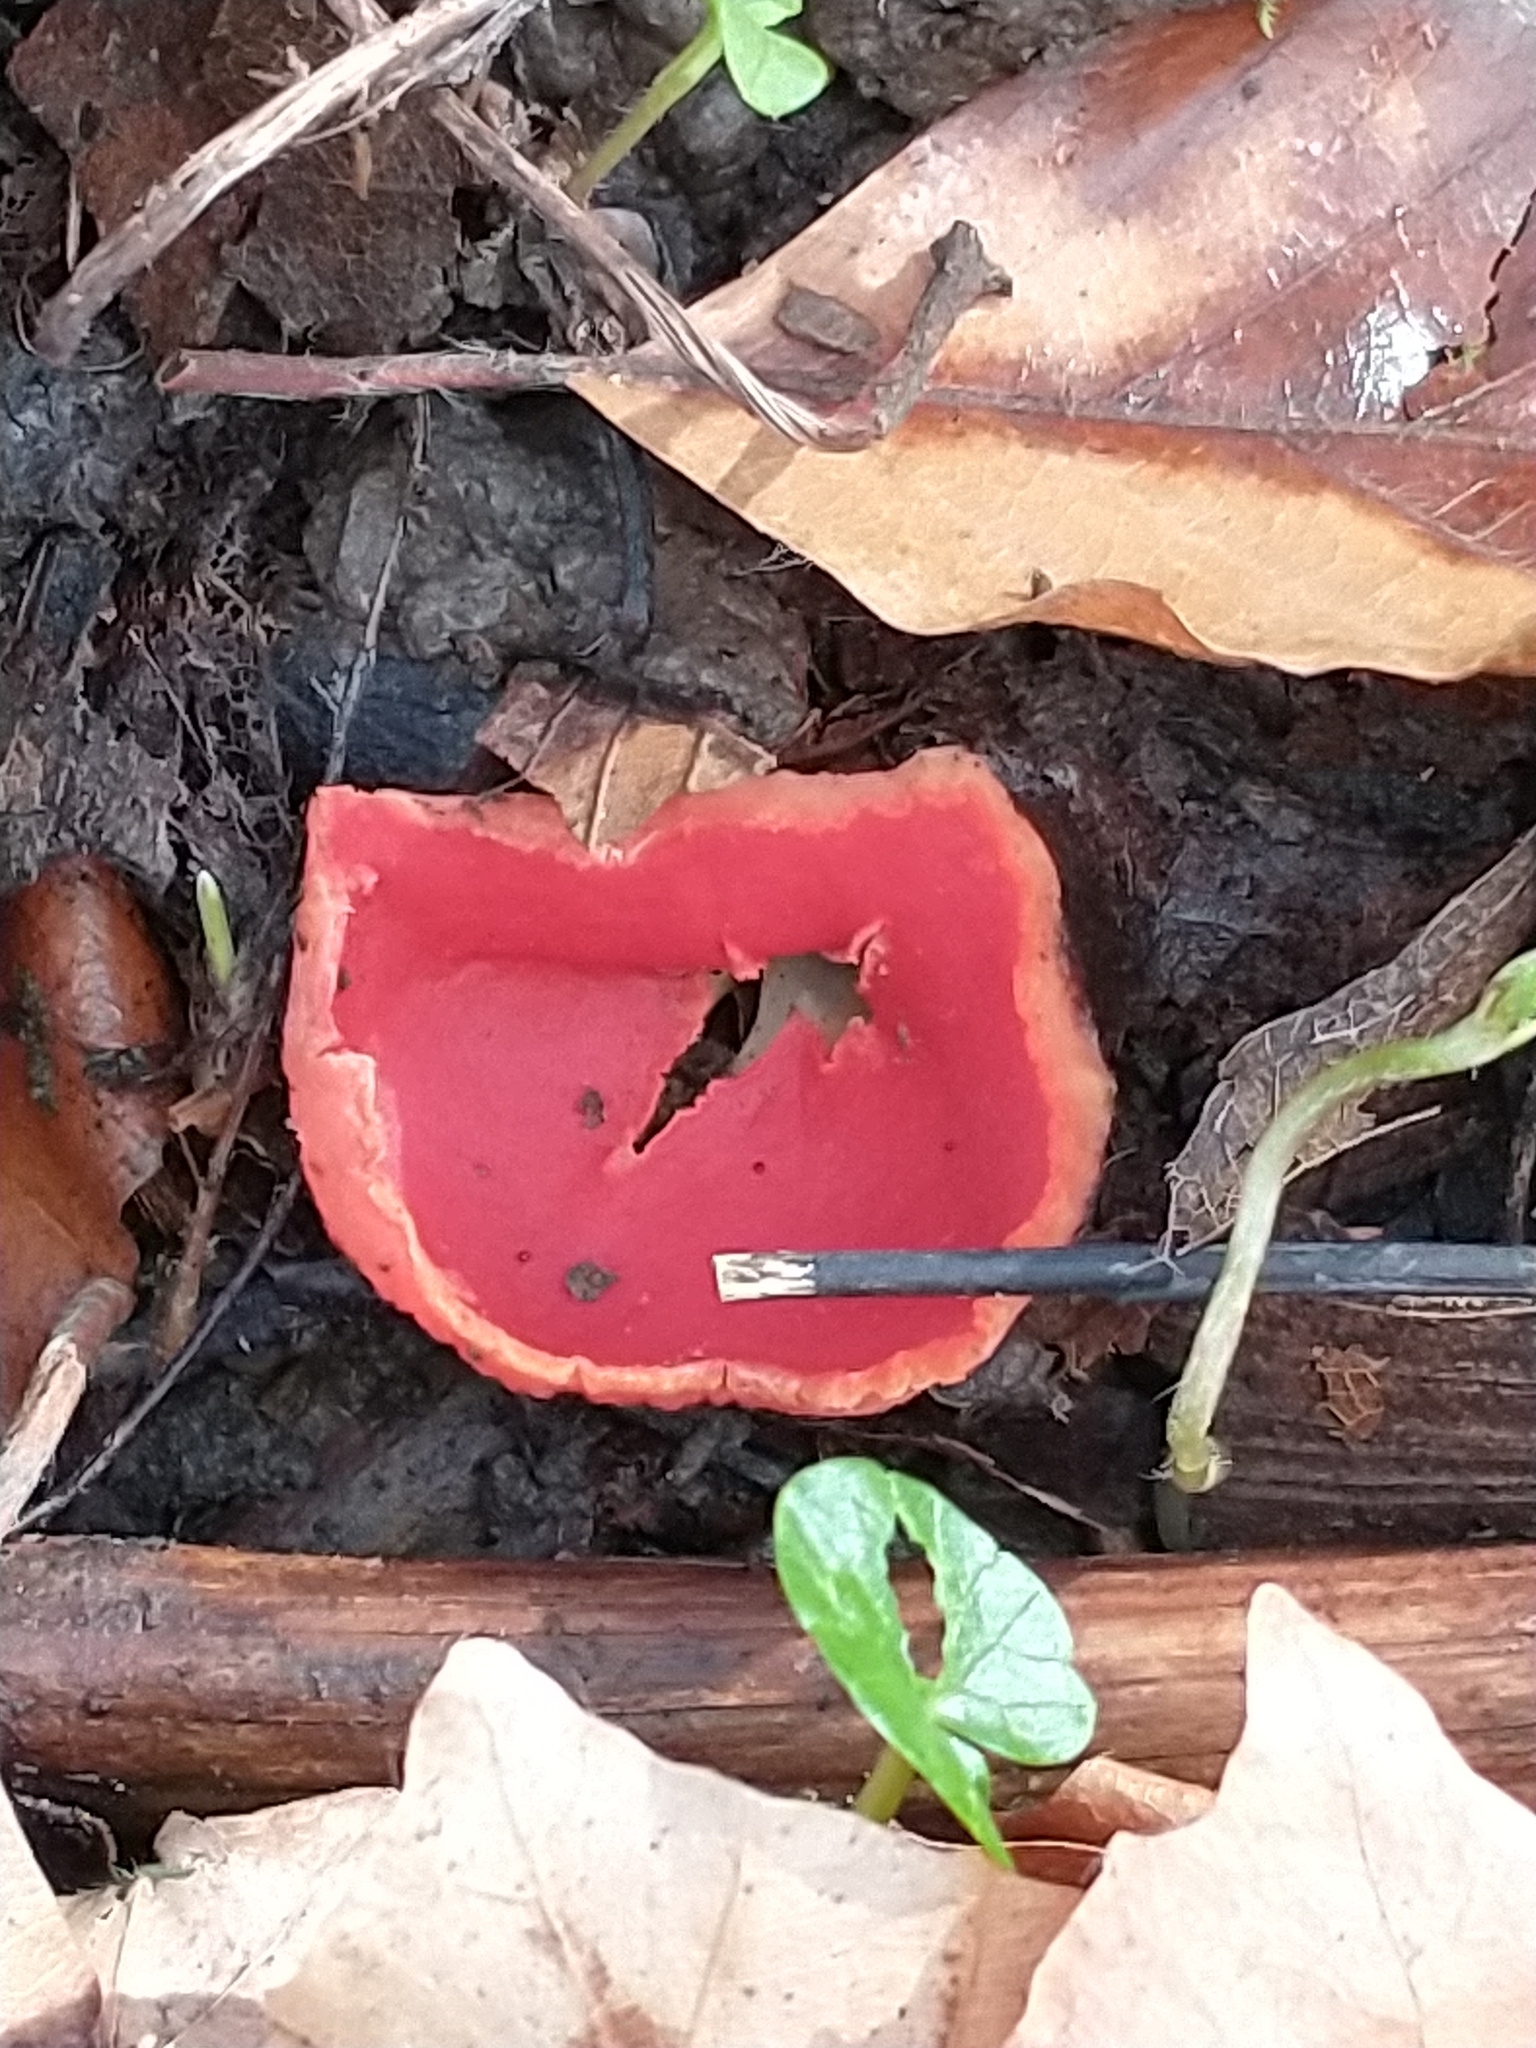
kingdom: Fungi
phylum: Ascomycota
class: Pezizomycetes
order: Pezizales
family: Sarcoscyphaceae
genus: Sarcoscypha
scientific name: Sarcoscypha
